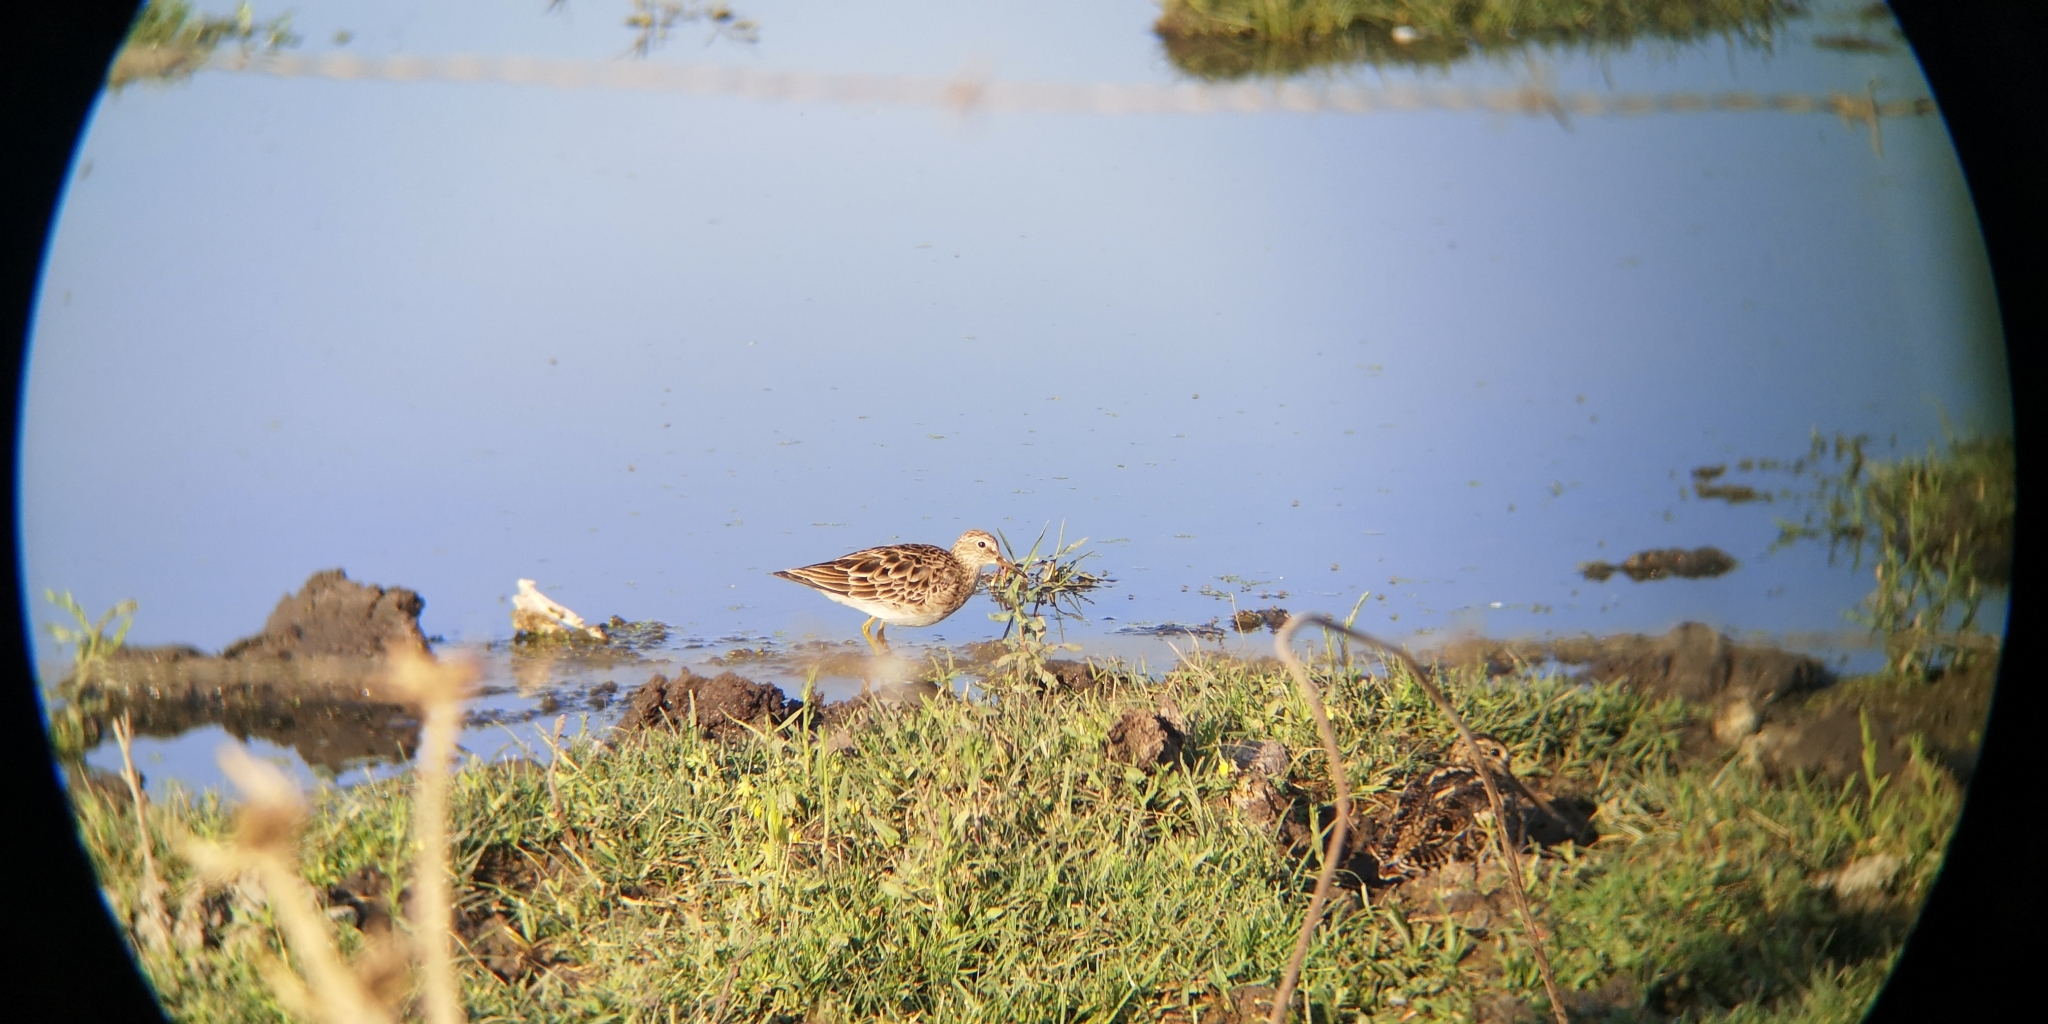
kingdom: Animalia
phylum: Chordata
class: Aves
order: Charadriiformes
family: Scolopacidae
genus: Calidris
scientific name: Calidris melanotos
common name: Pectoral sandpiper
